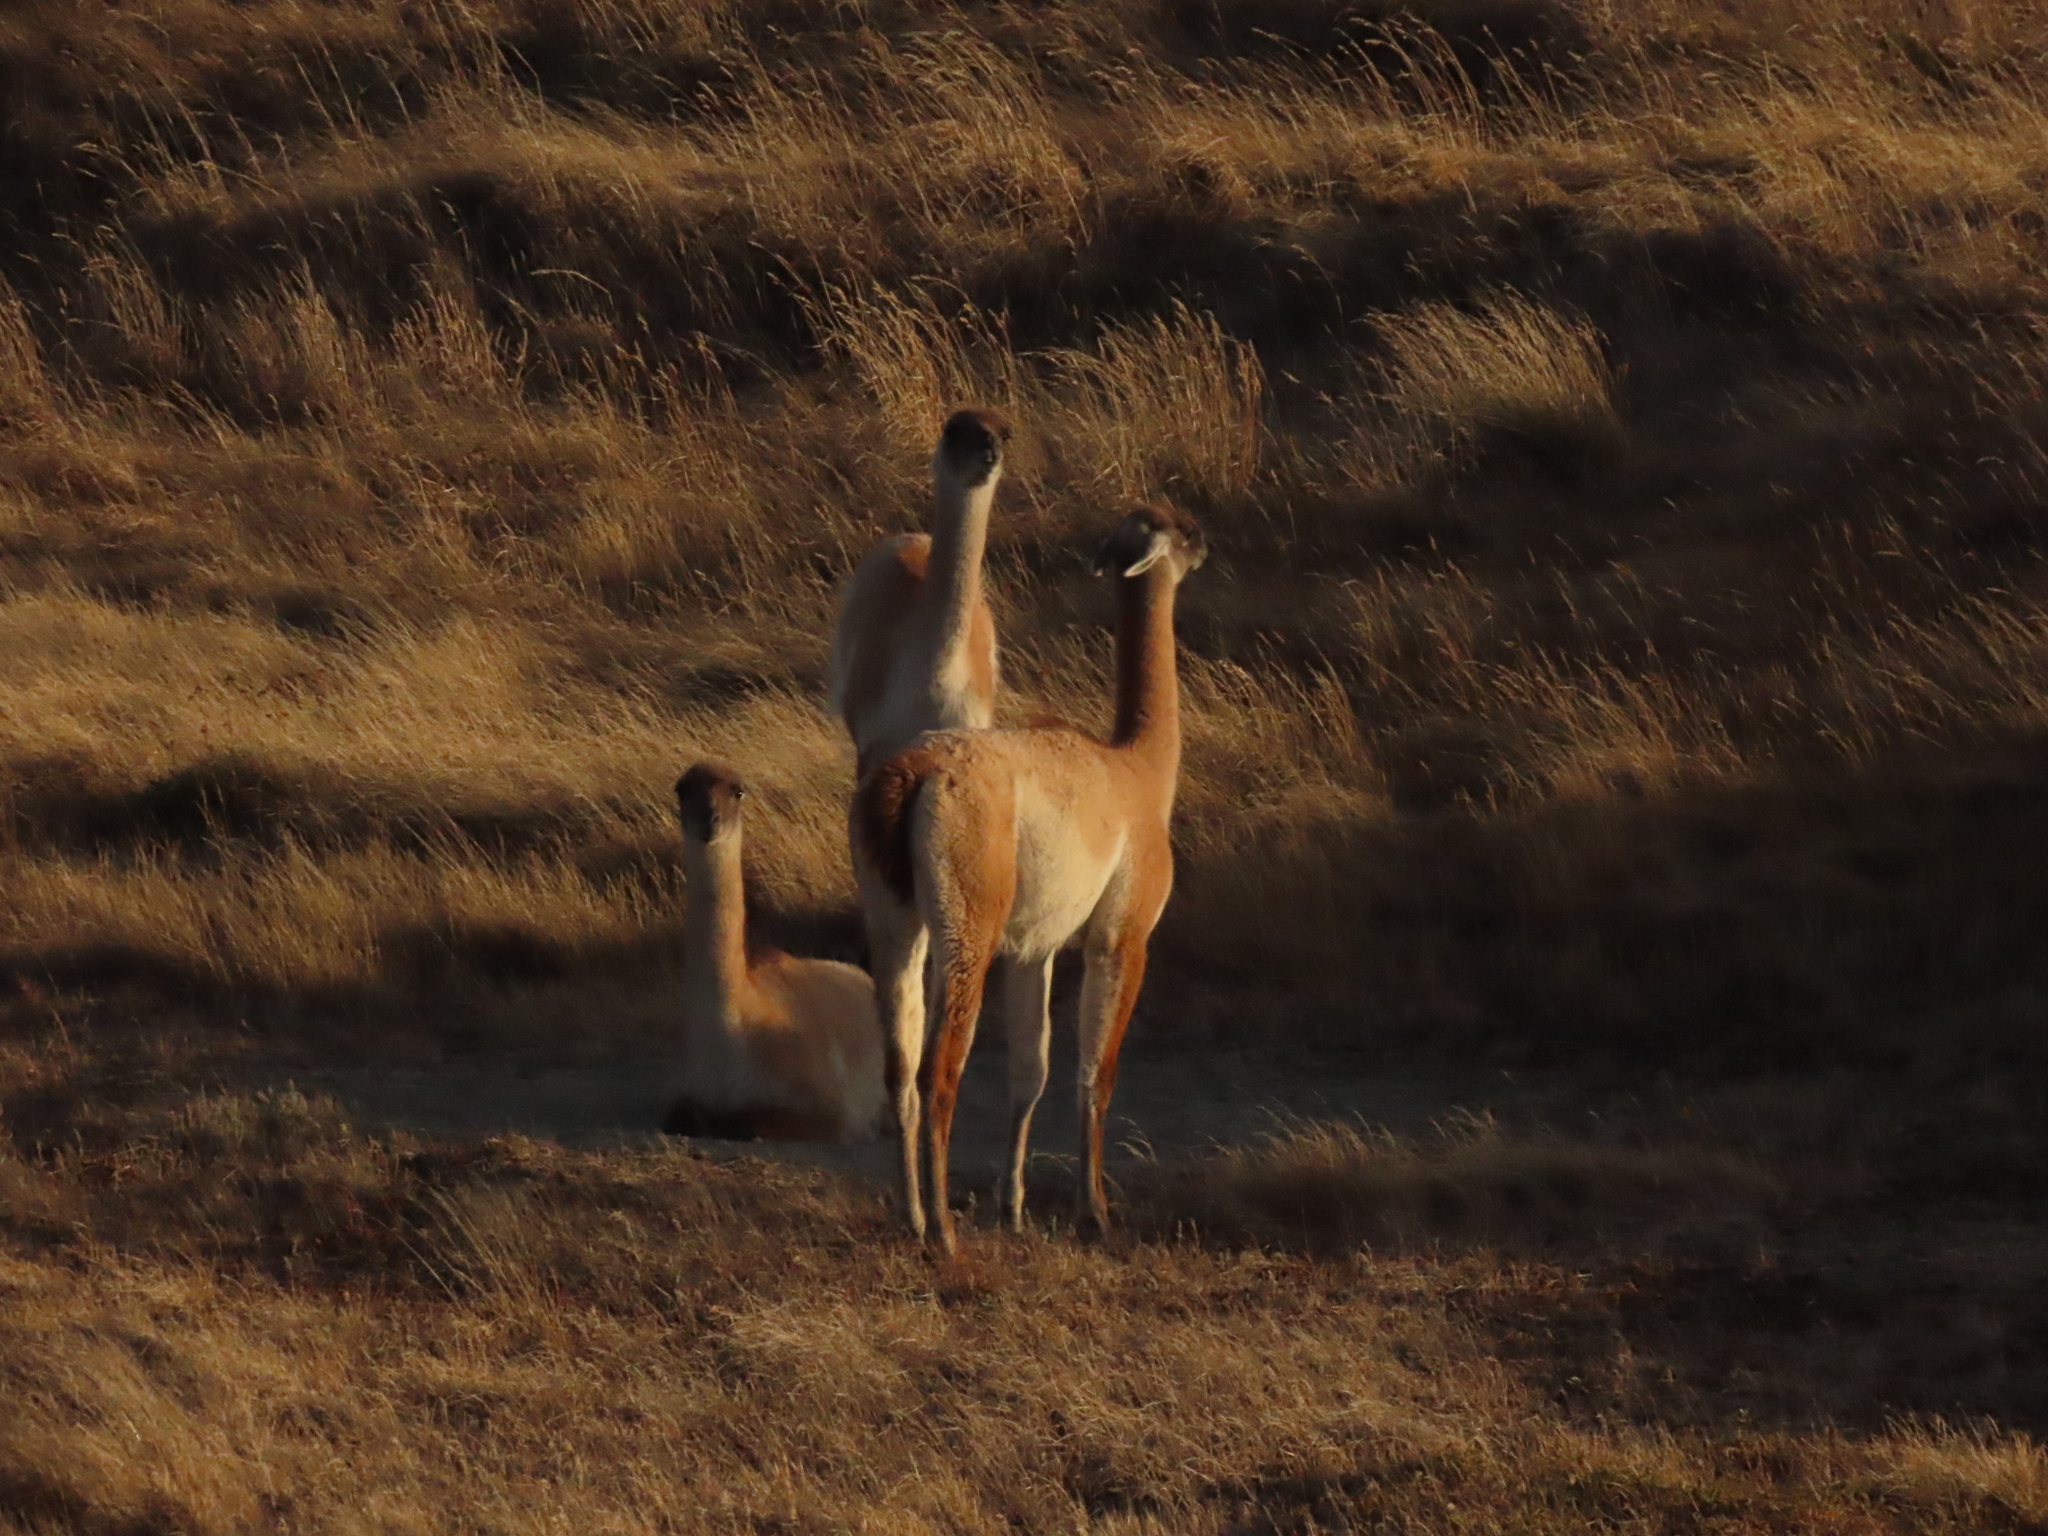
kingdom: Animalia
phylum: Chordata
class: Mammalia
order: Artiodactyla
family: Camelidae
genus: Lama
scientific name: Lama glama
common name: Llama
